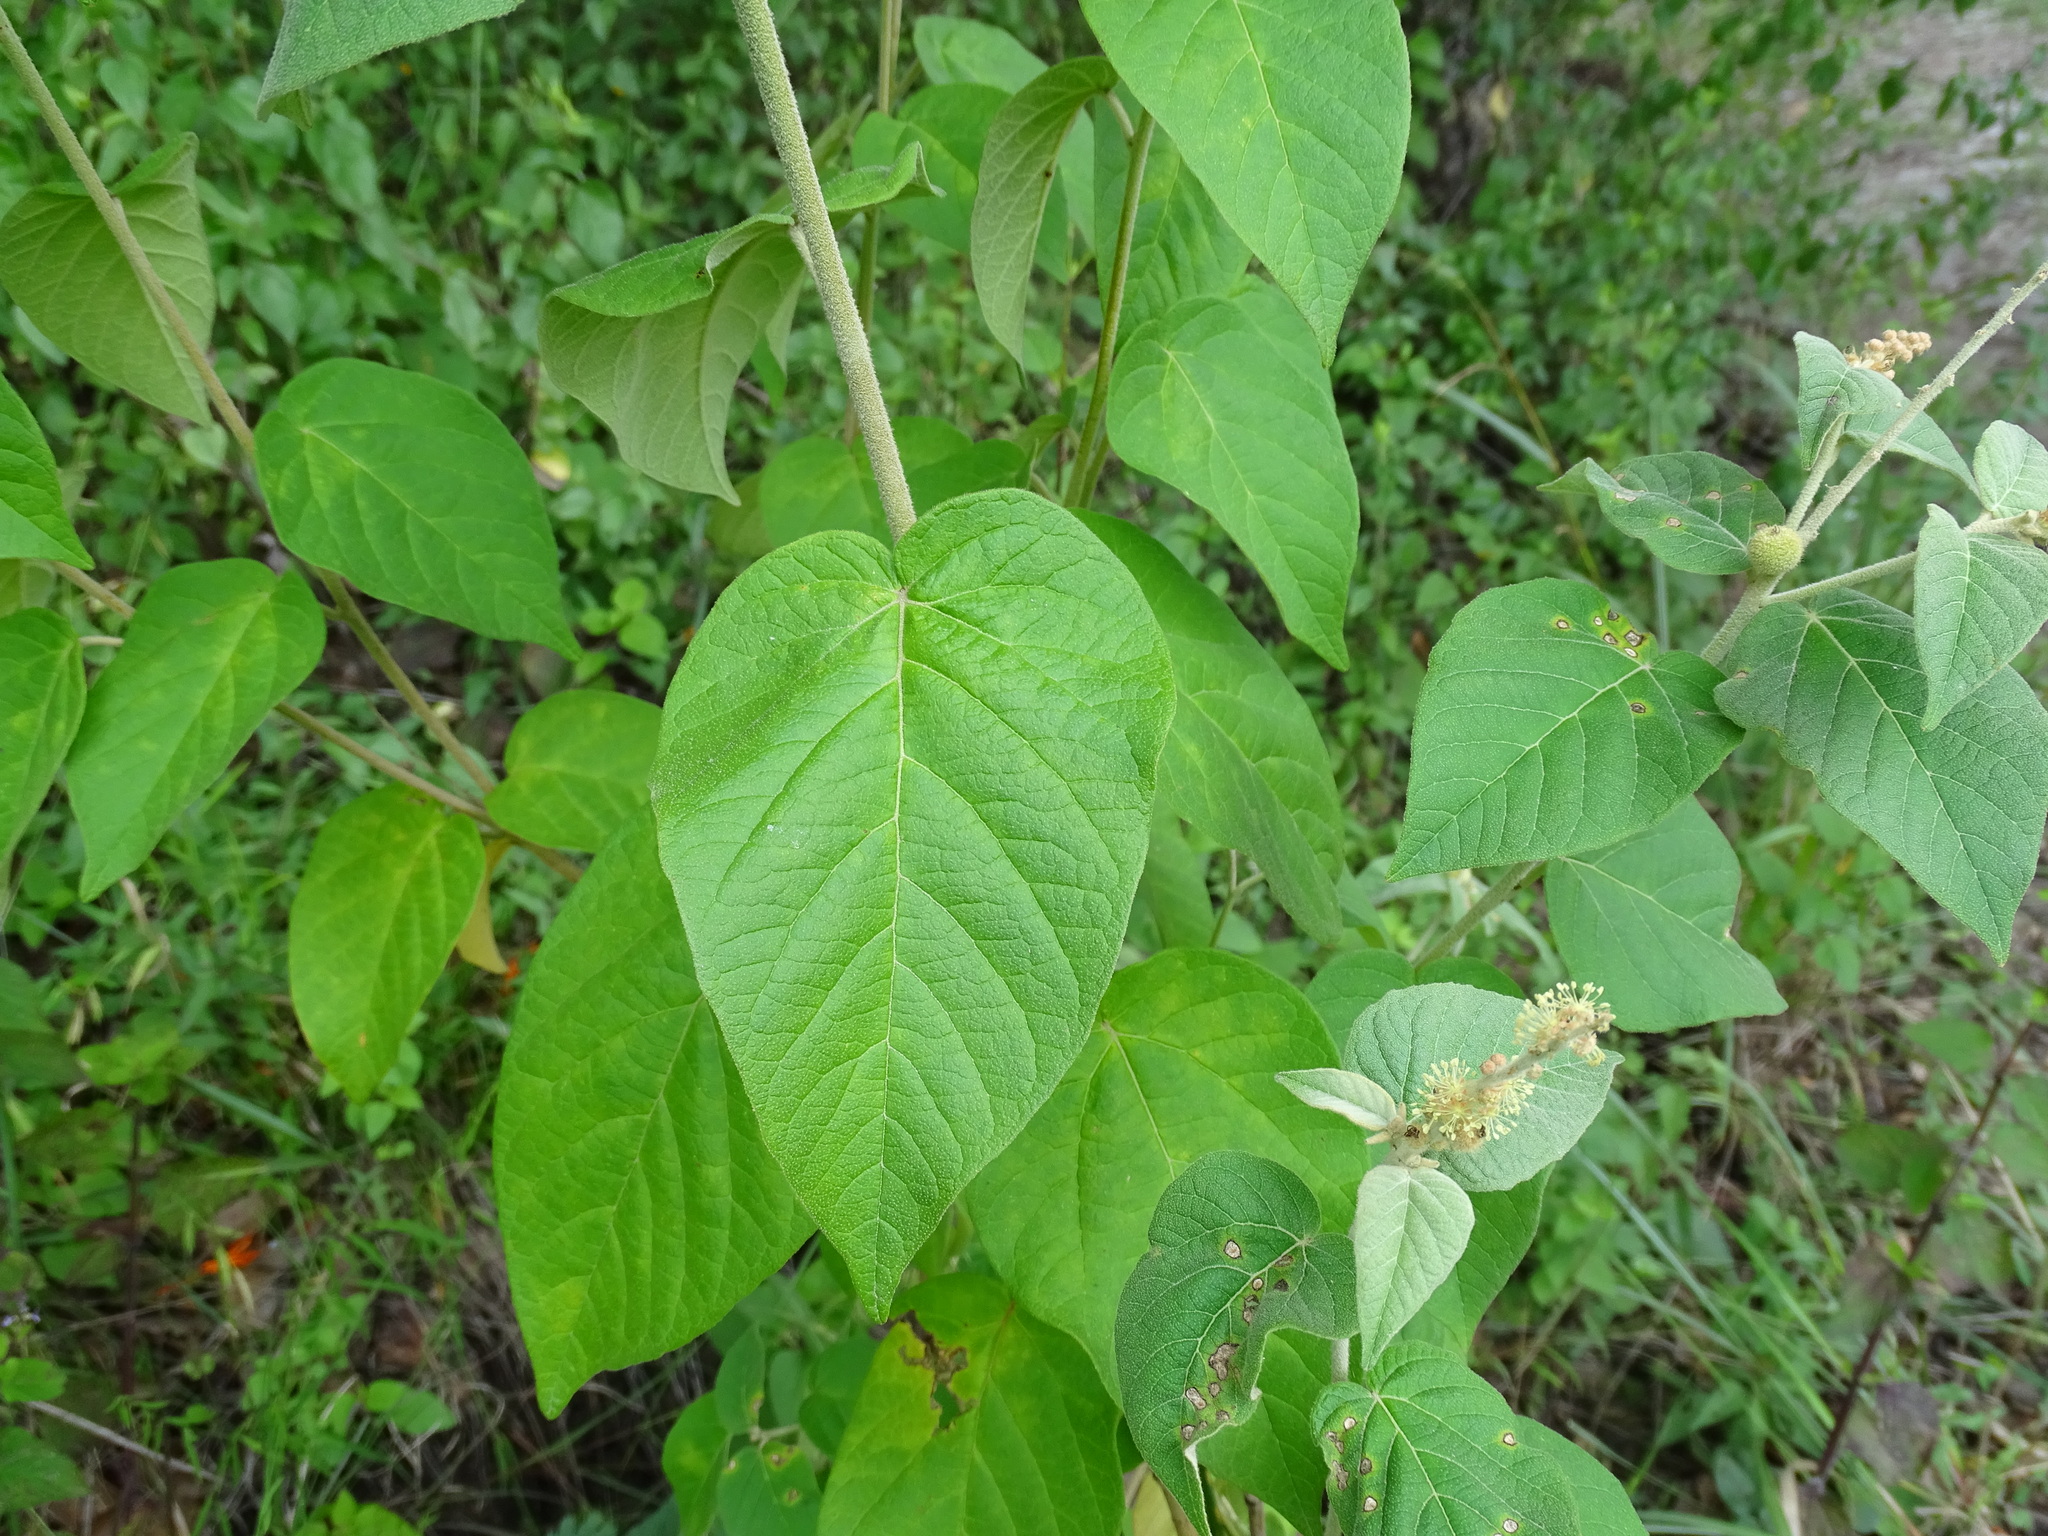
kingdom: Plantae
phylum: Tracheophyta
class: Magnoliopsida
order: Malpighiales
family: Euphorbiaceae
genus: Croton
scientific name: Croton morifolius
